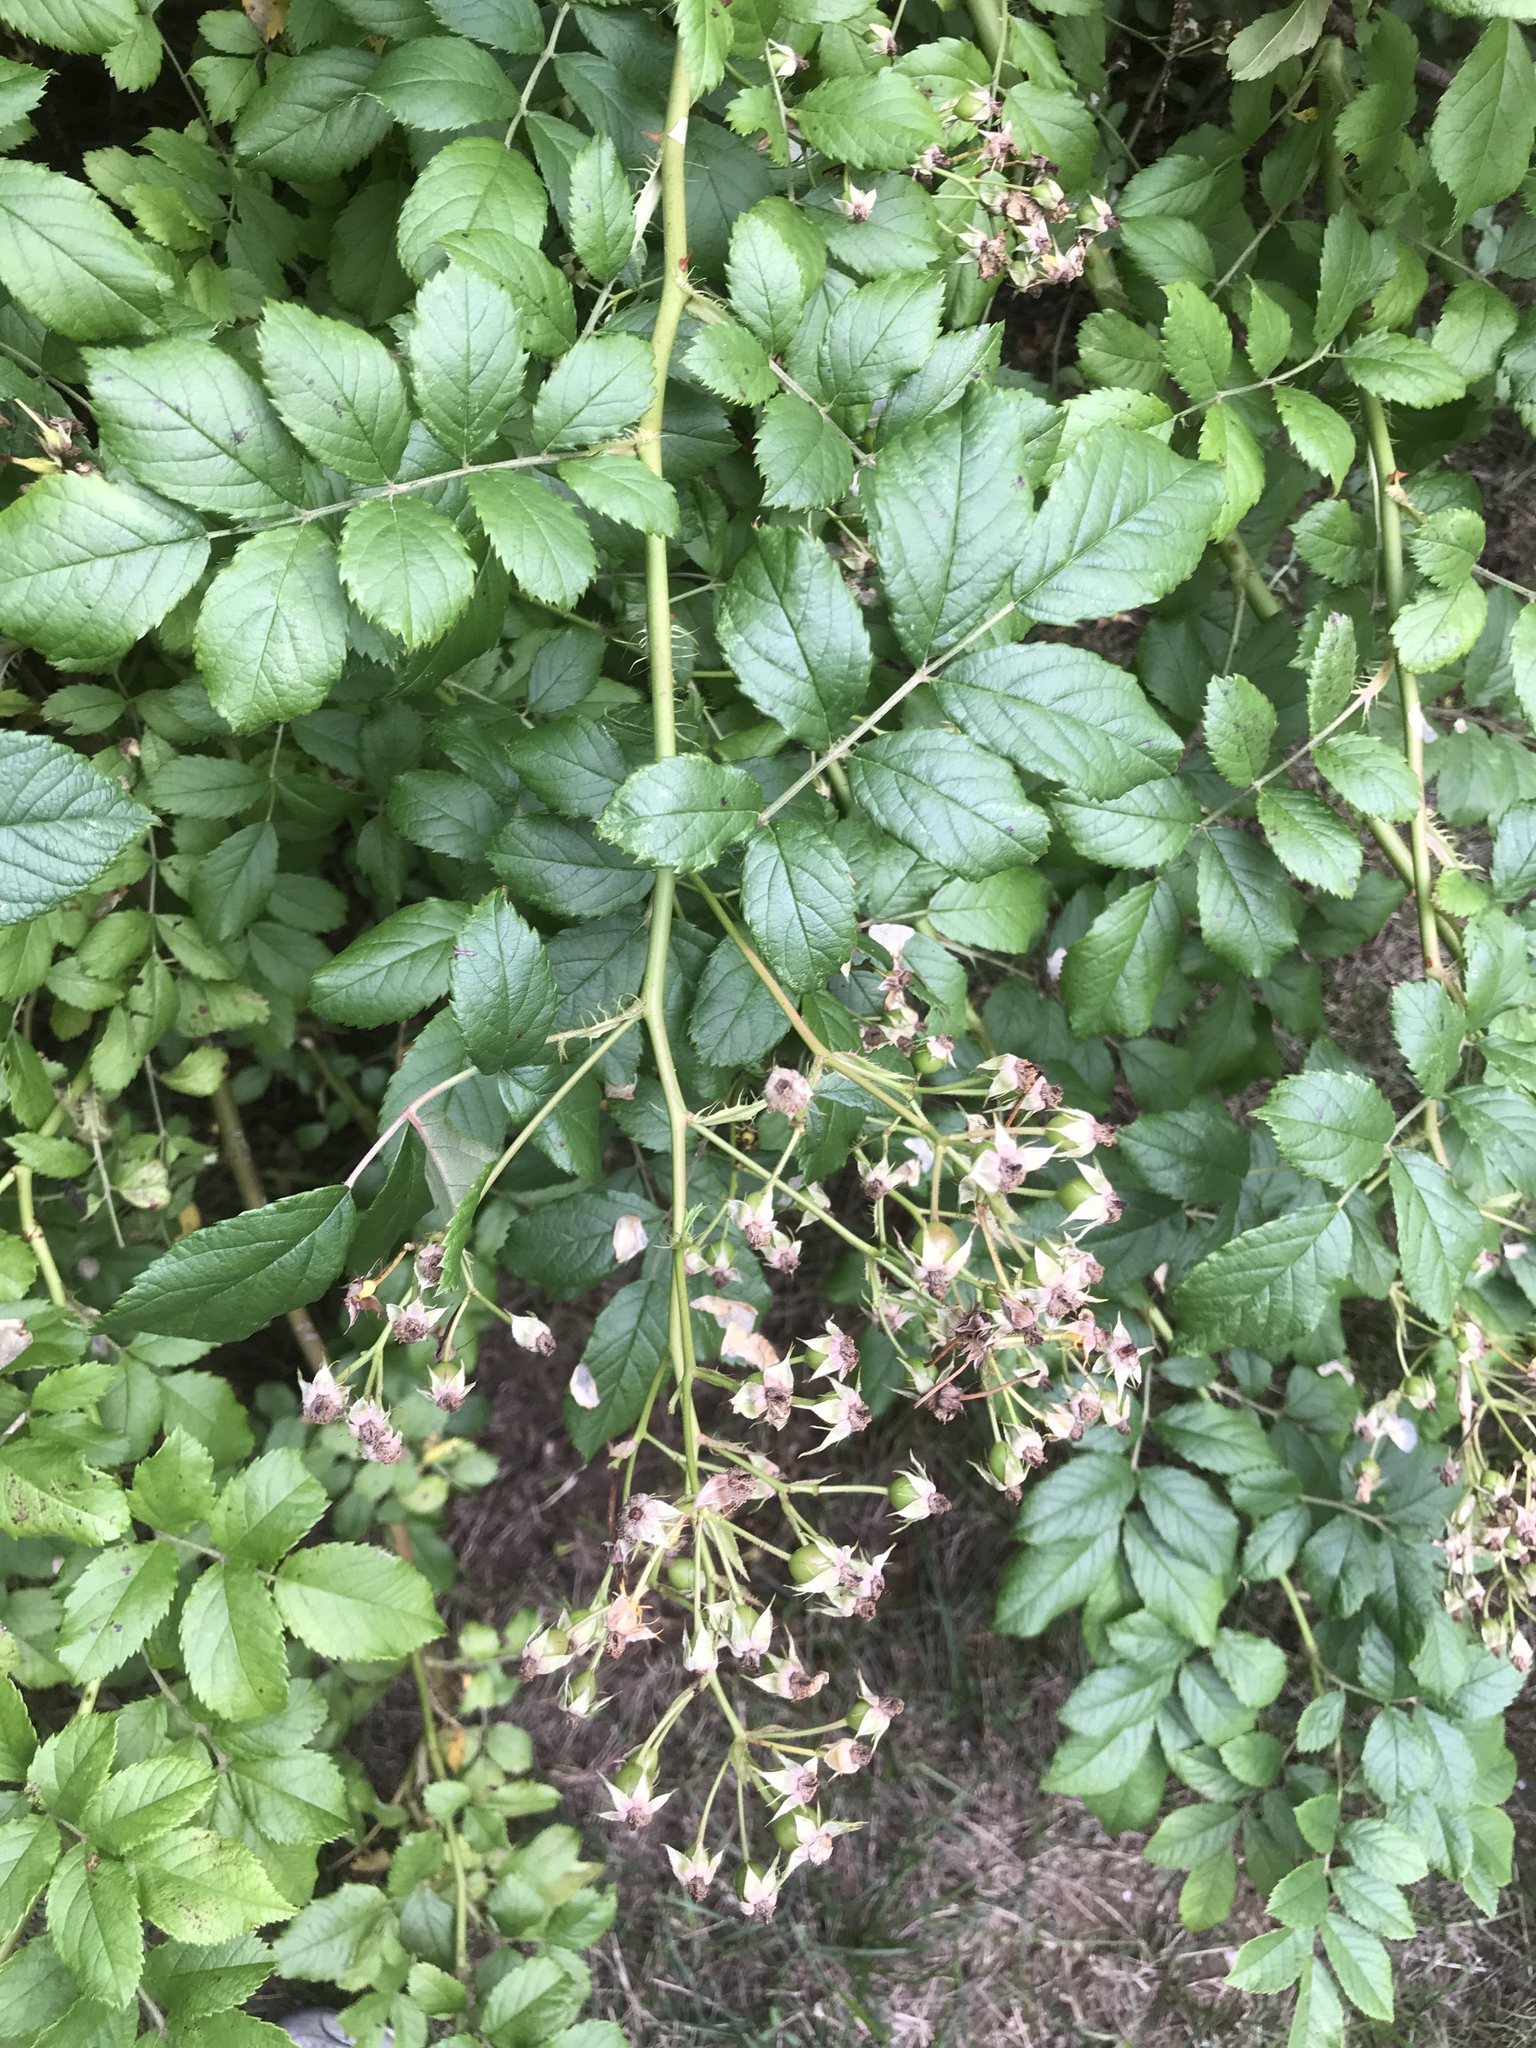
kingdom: Plantae
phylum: Tracheophyta
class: Magnoliopsida
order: Rosales
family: Rosaceae
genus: Rosa
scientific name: Rosa multiflora
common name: Multiflora rose
